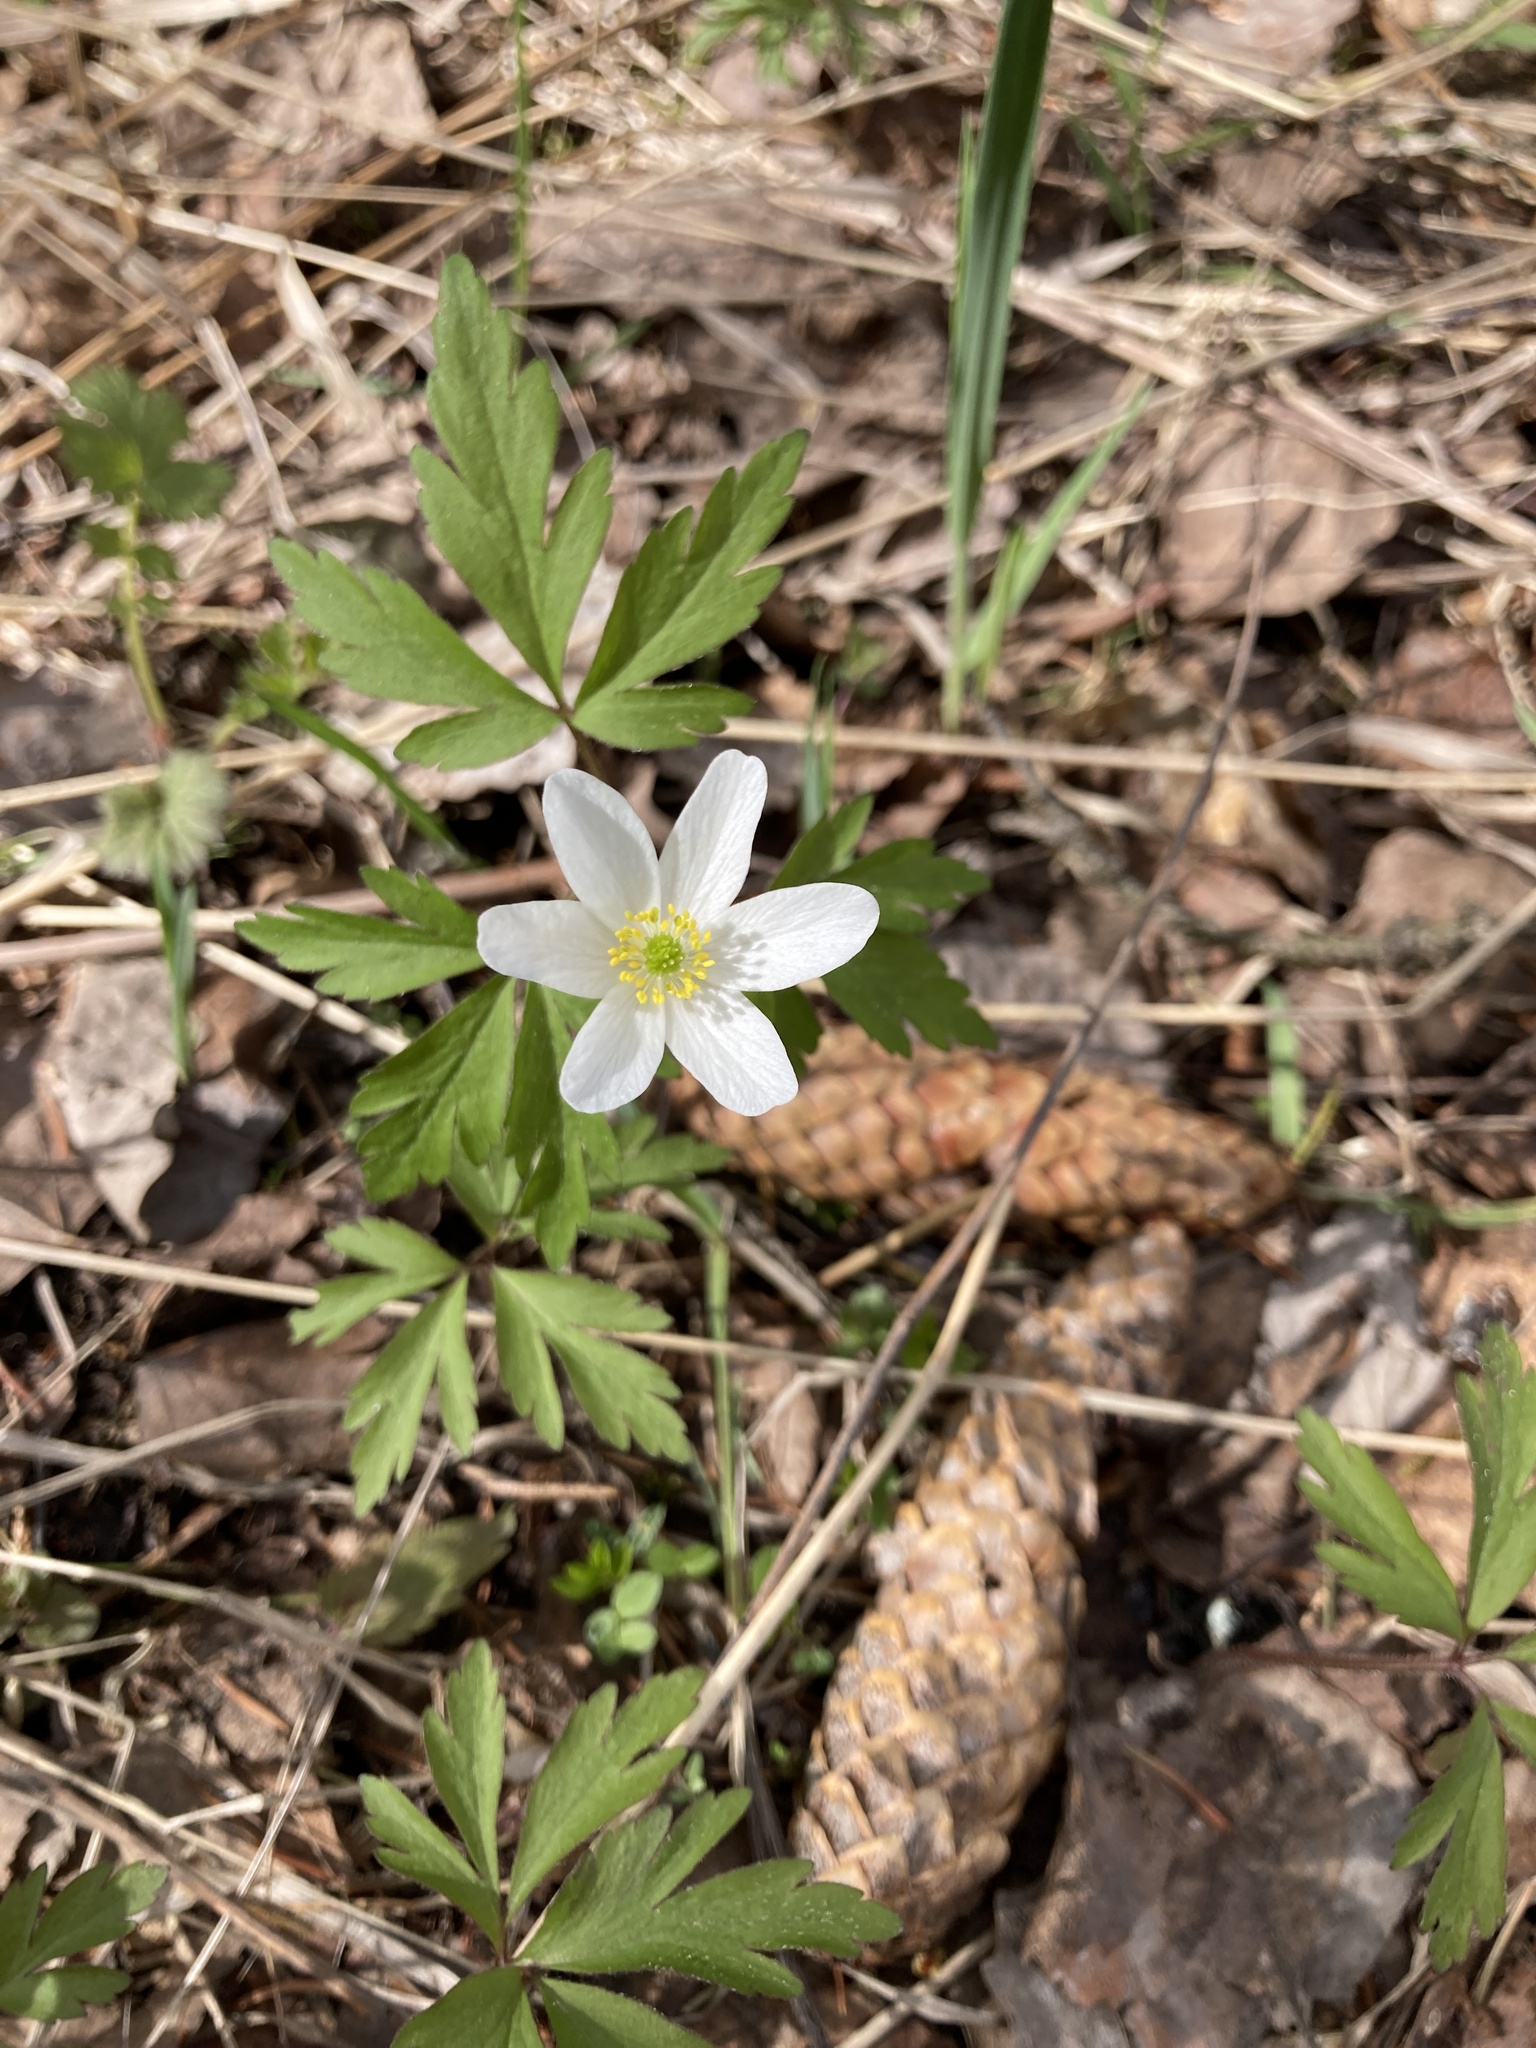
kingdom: Plantae
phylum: Tracheophyta
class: Magnoliopsida
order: Ranunculales
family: Ranunculaceae
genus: Anemone
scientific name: Anemone nemorosa
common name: Wood anemone
